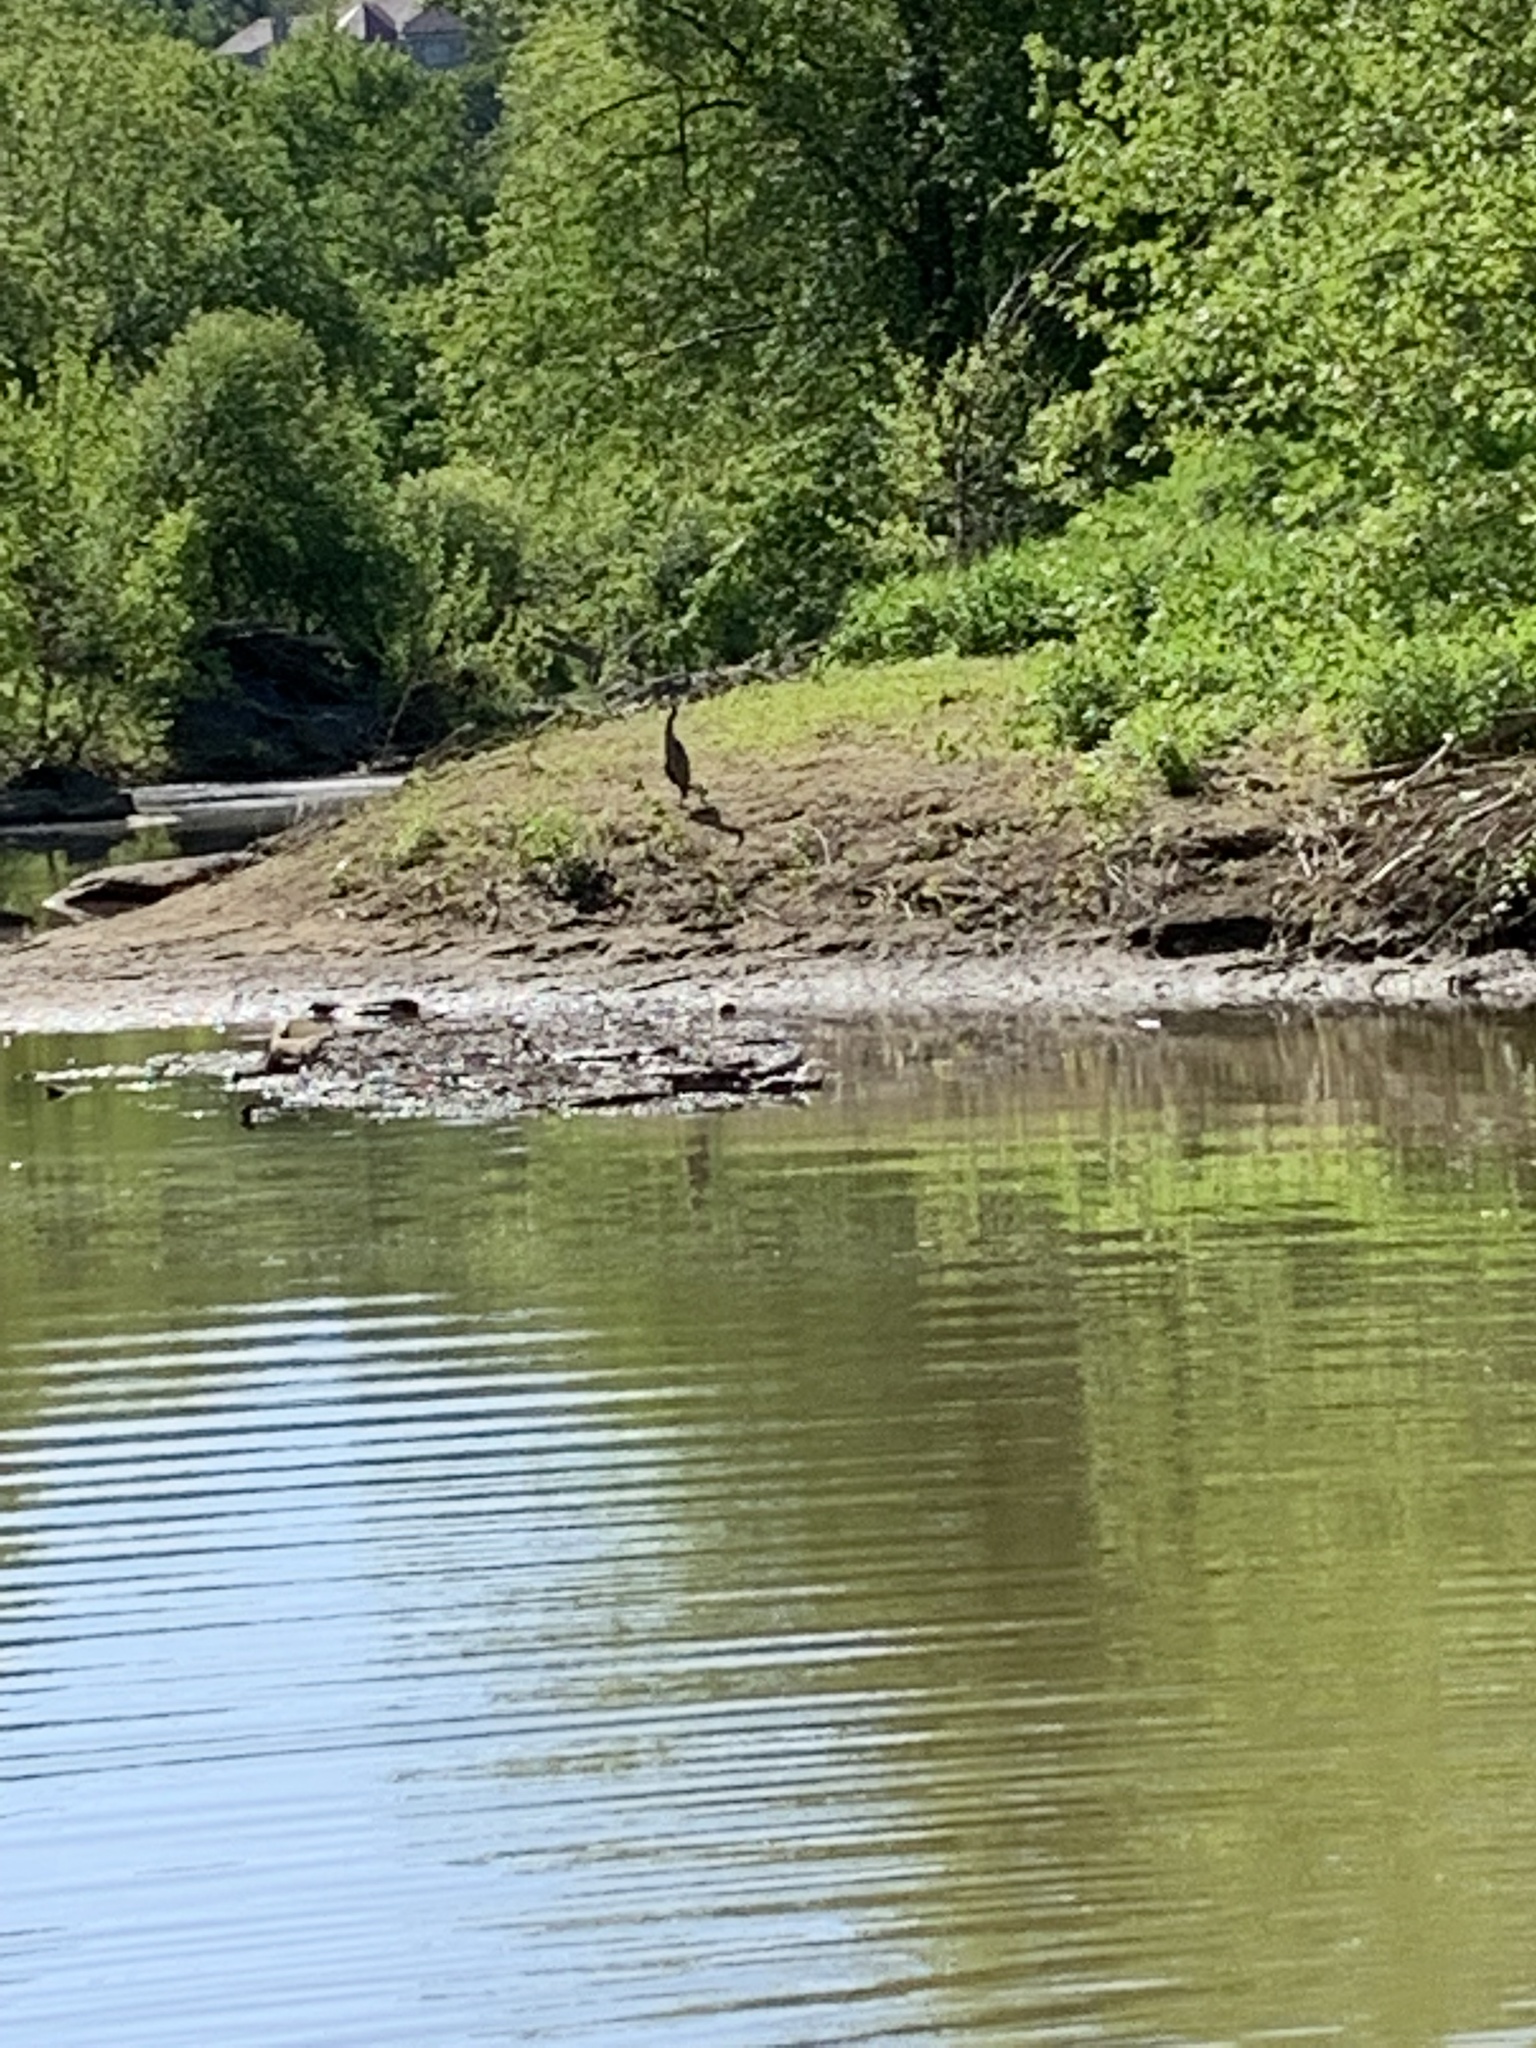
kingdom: Animalia
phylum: Chordata
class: Aves
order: Pelecaniformes
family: Ardeidae
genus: Ardea
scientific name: Ardea herodias
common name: Great blue heron
